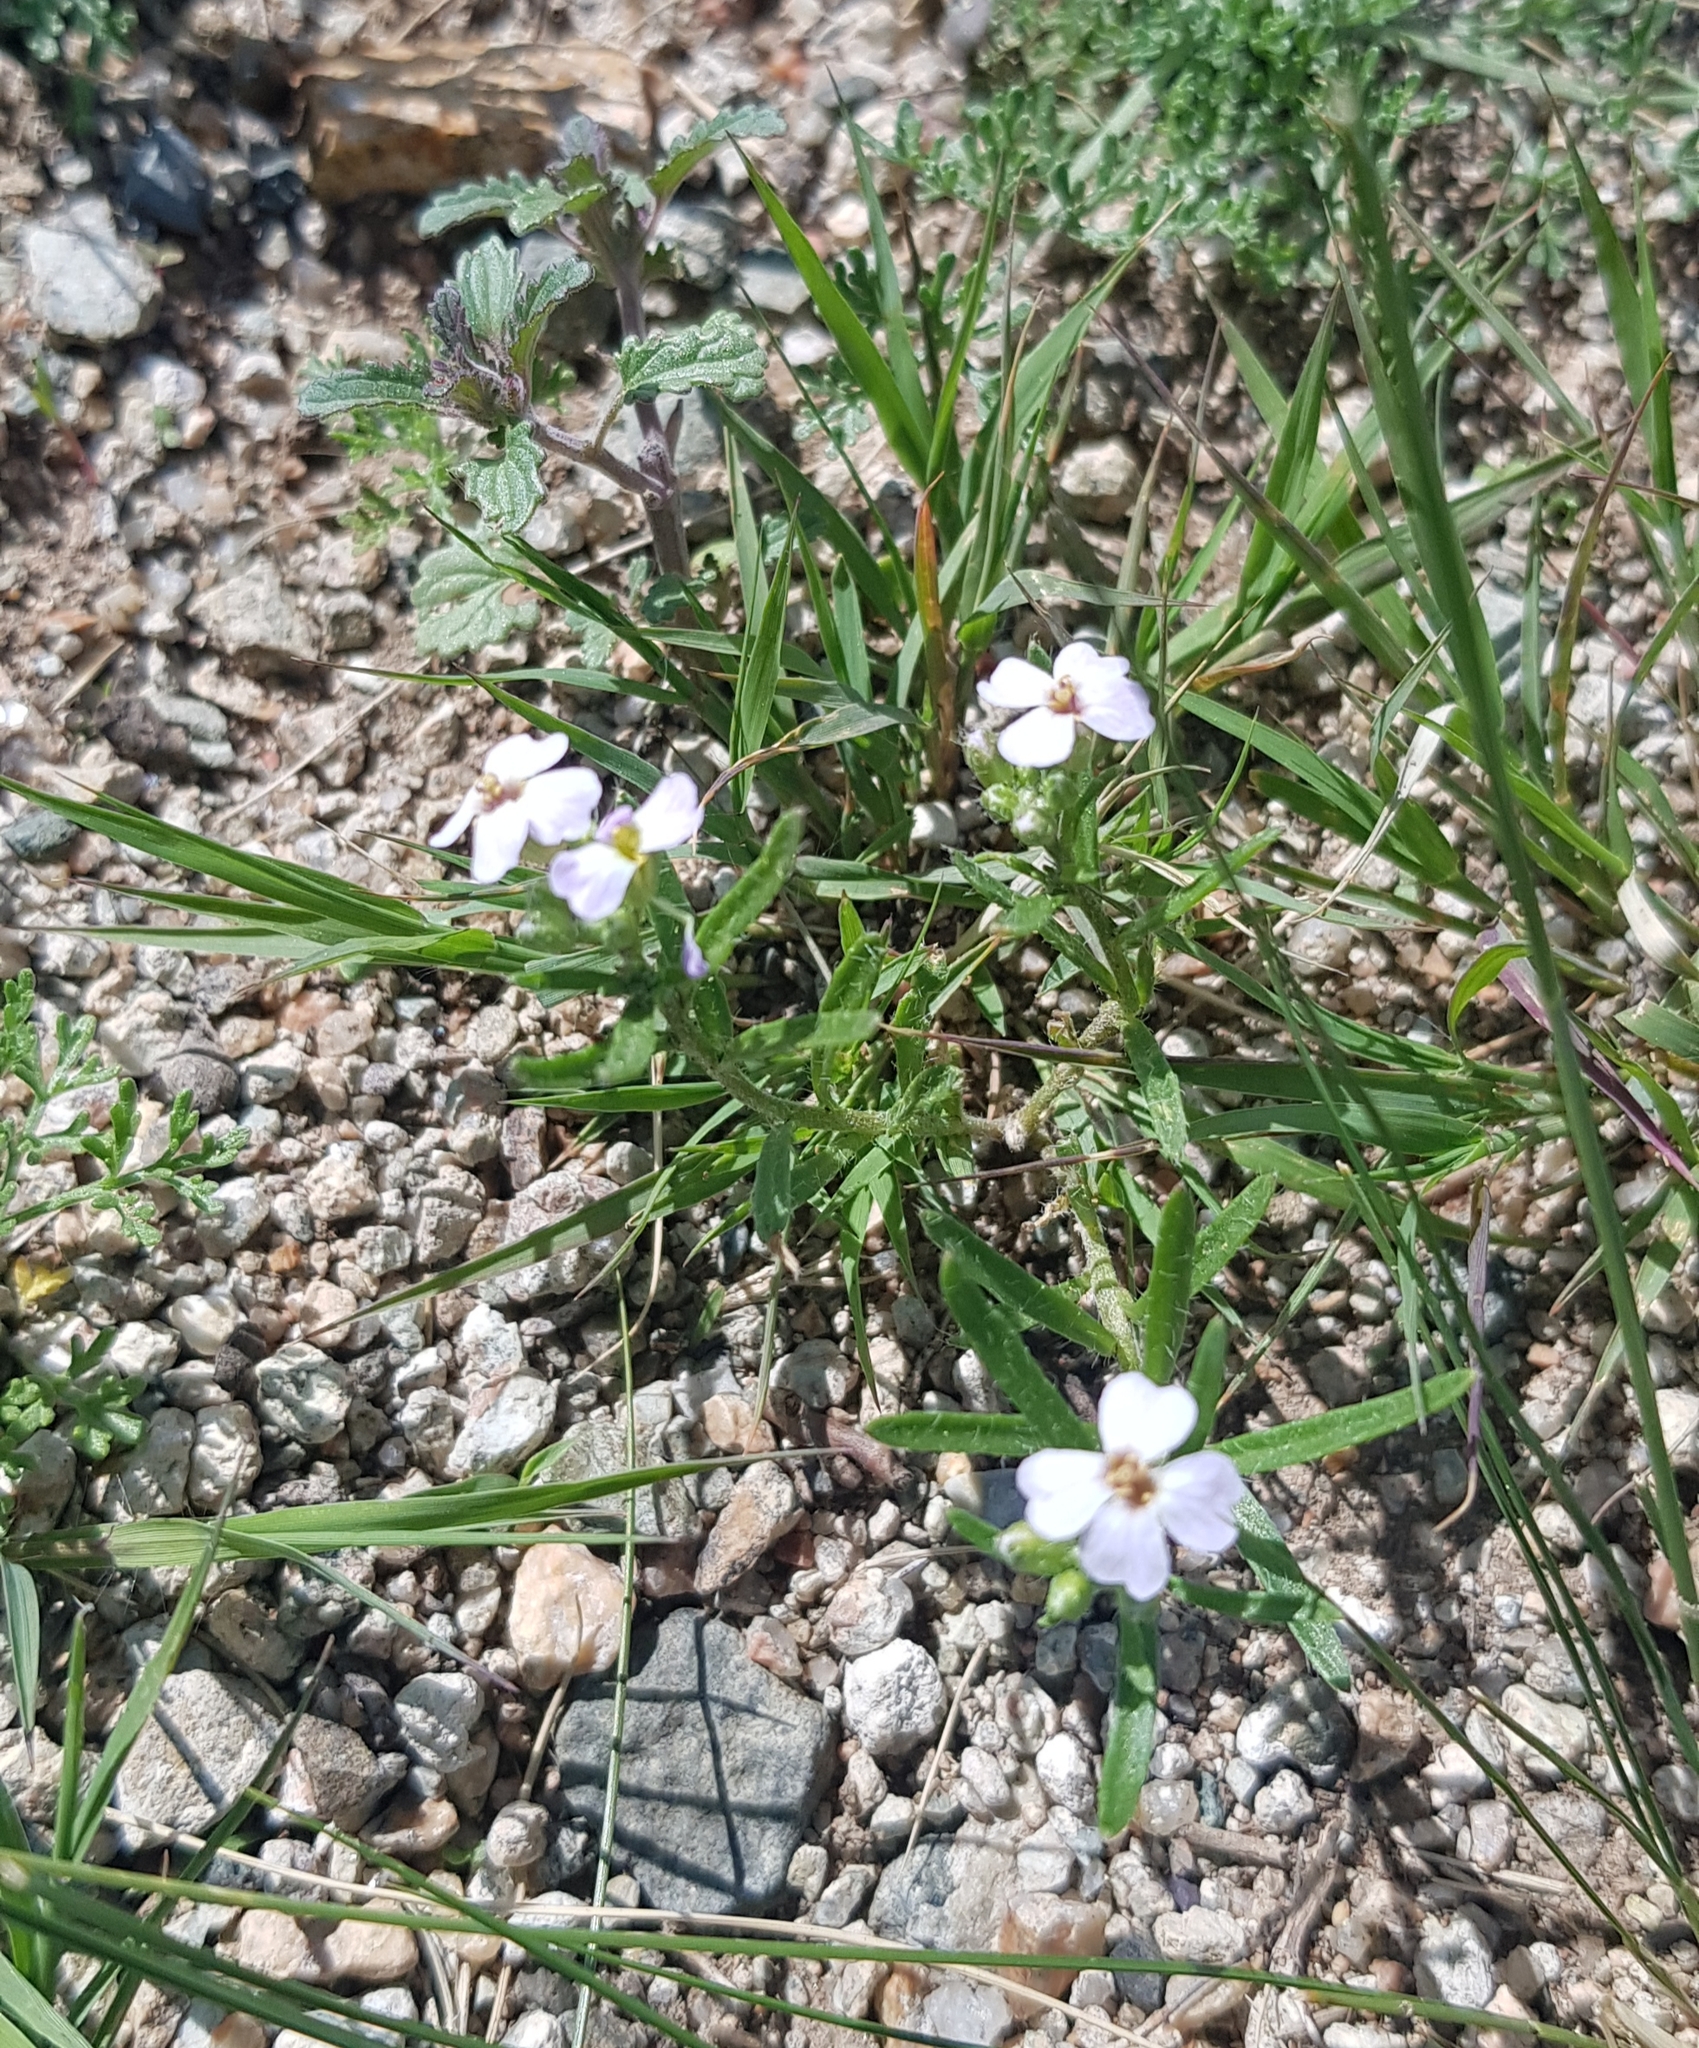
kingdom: Plantae
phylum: Tracheophyta
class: Magnoliopsida
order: Brassicales
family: Brassicaceae
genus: Dontostemon
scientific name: Dontostemon integrifolius
